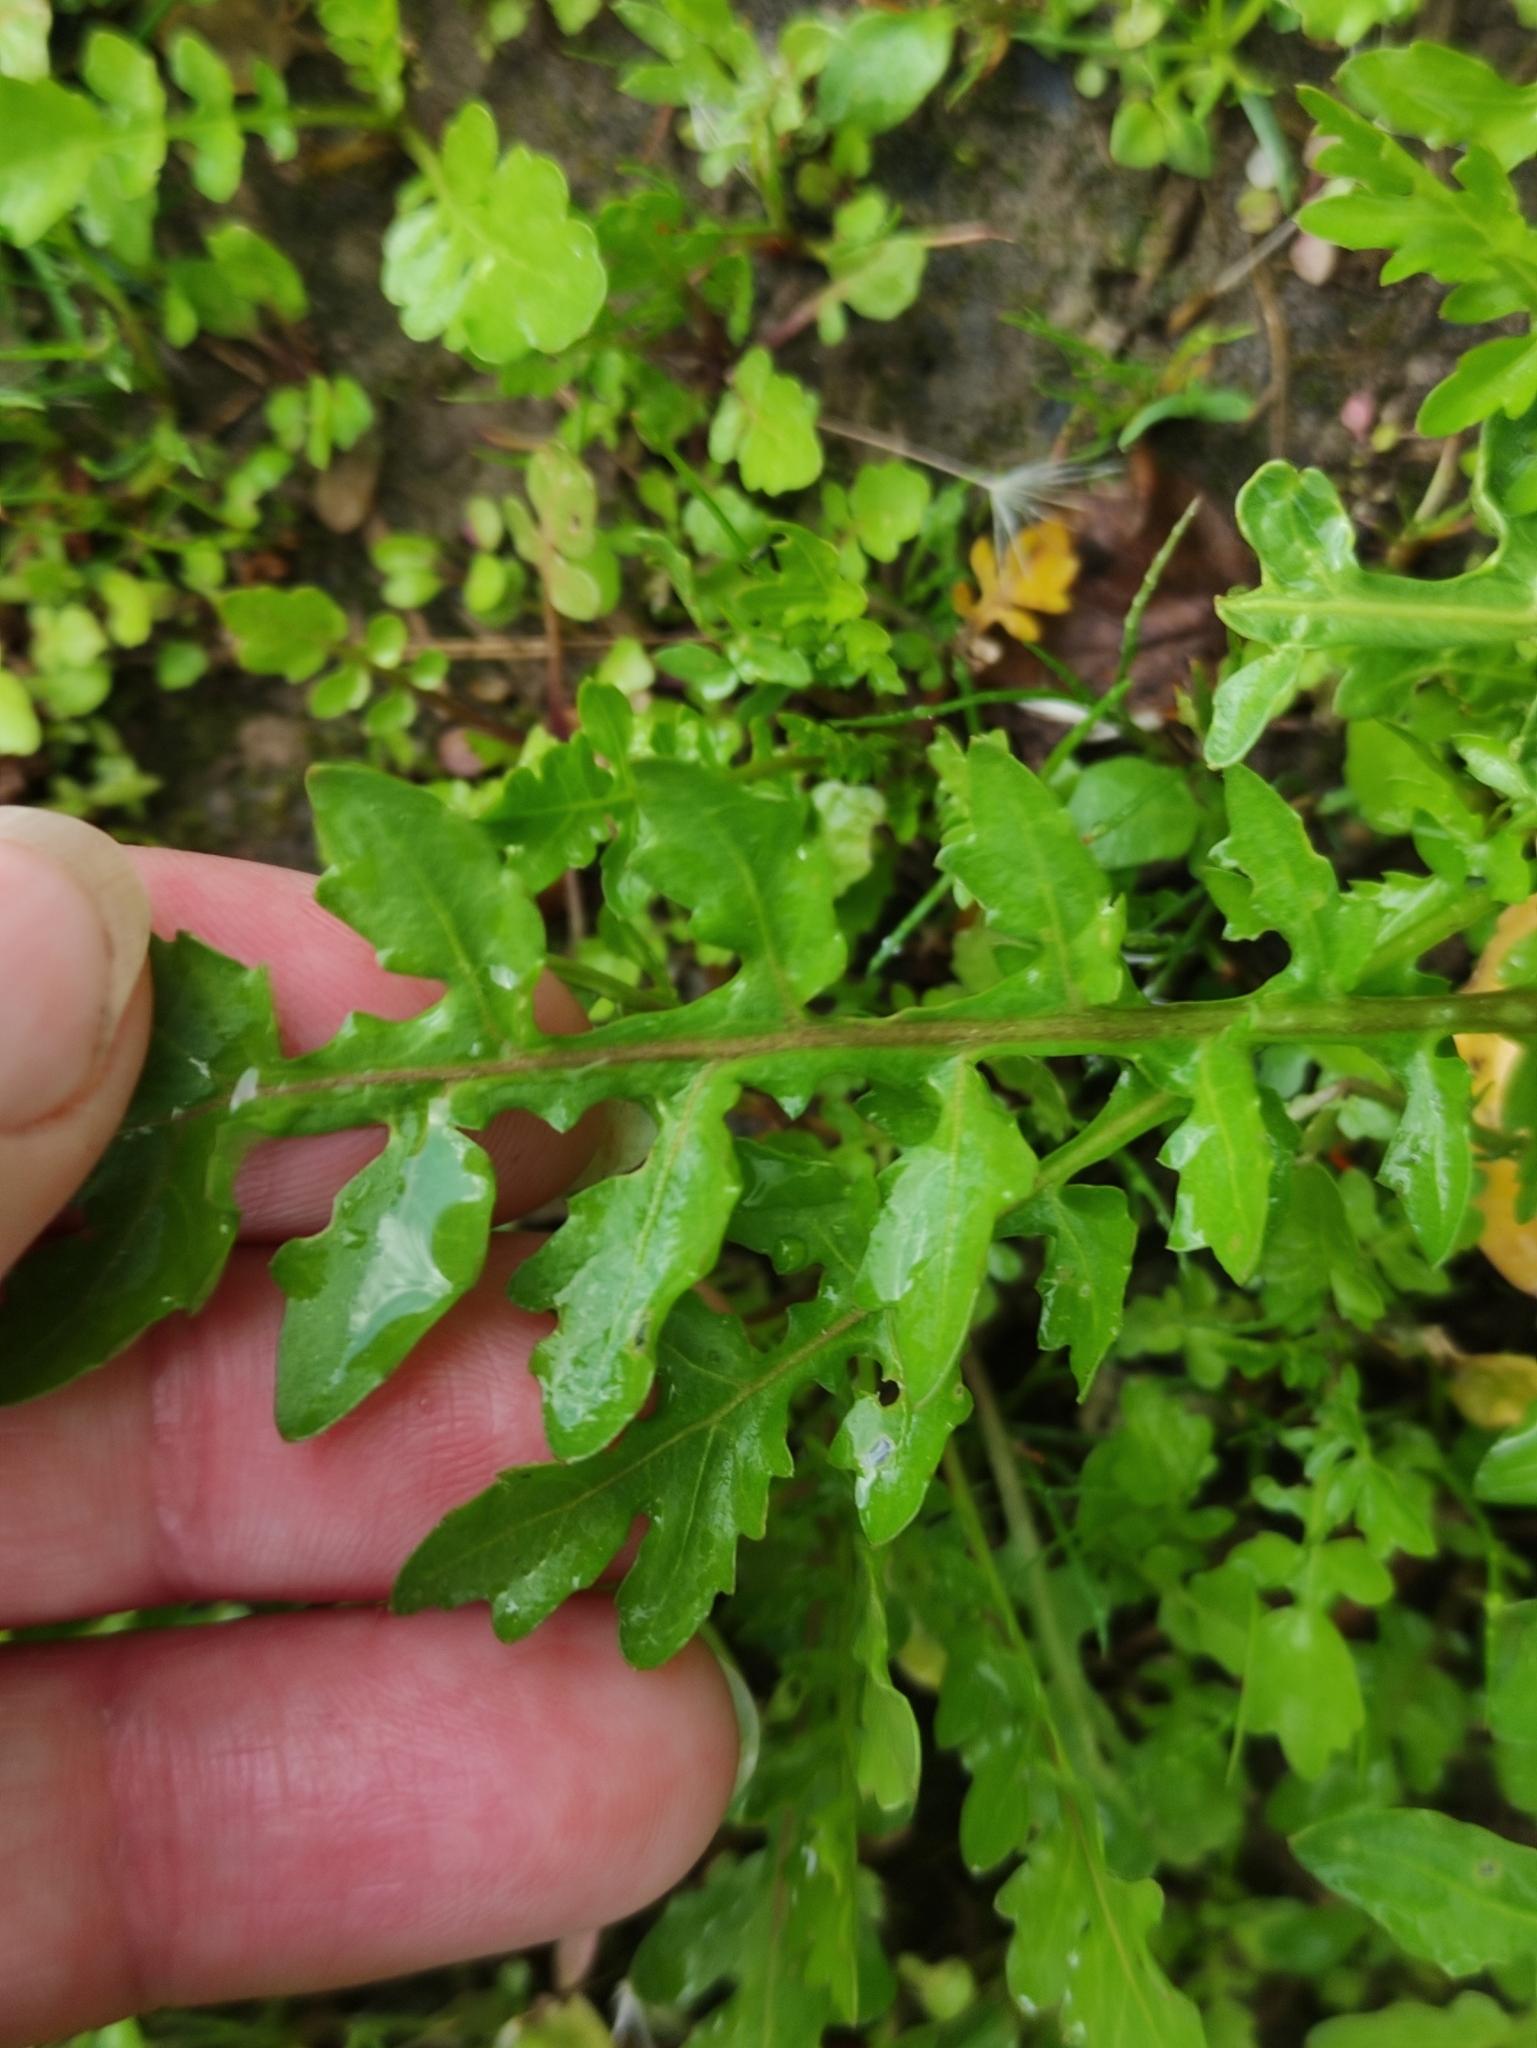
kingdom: Plantae
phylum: Tracheophyta
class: Magnoliopsida
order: Brassicales
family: Brassicaceae
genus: Rorippa
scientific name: Rorippa palustris
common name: Marsh yellow-cress
